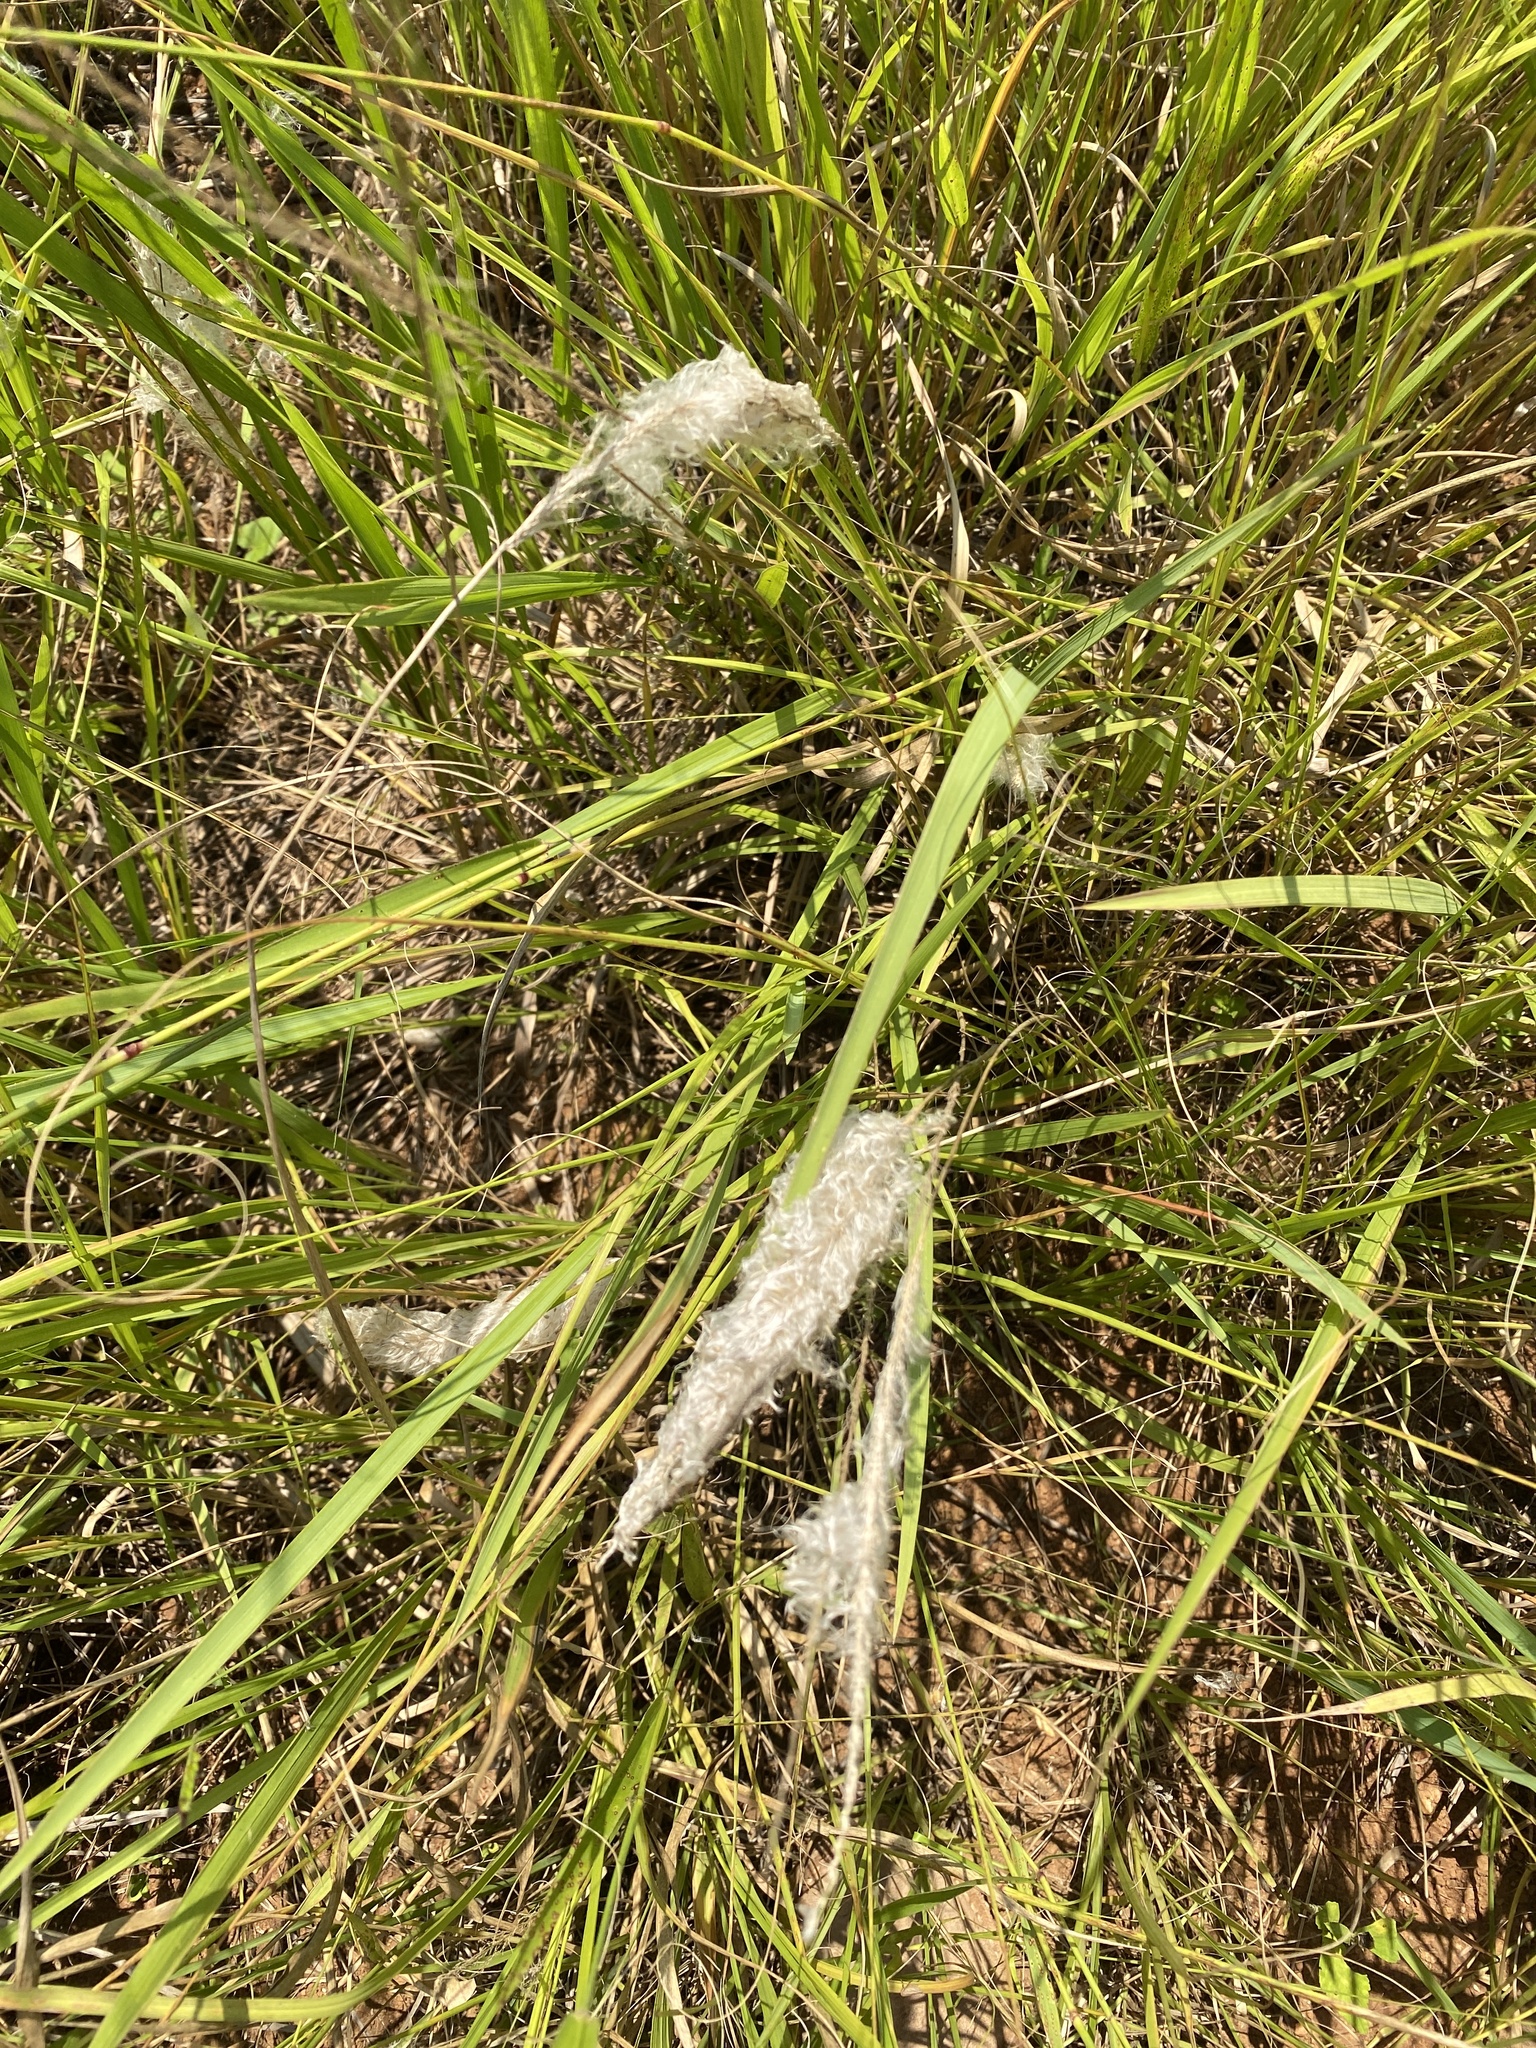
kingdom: Plantae
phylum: Tracheophyta
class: Liliopsida
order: Poales
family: Poaceae
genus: Imperata
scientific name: Imperata cylindrica
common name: Cogongrass
